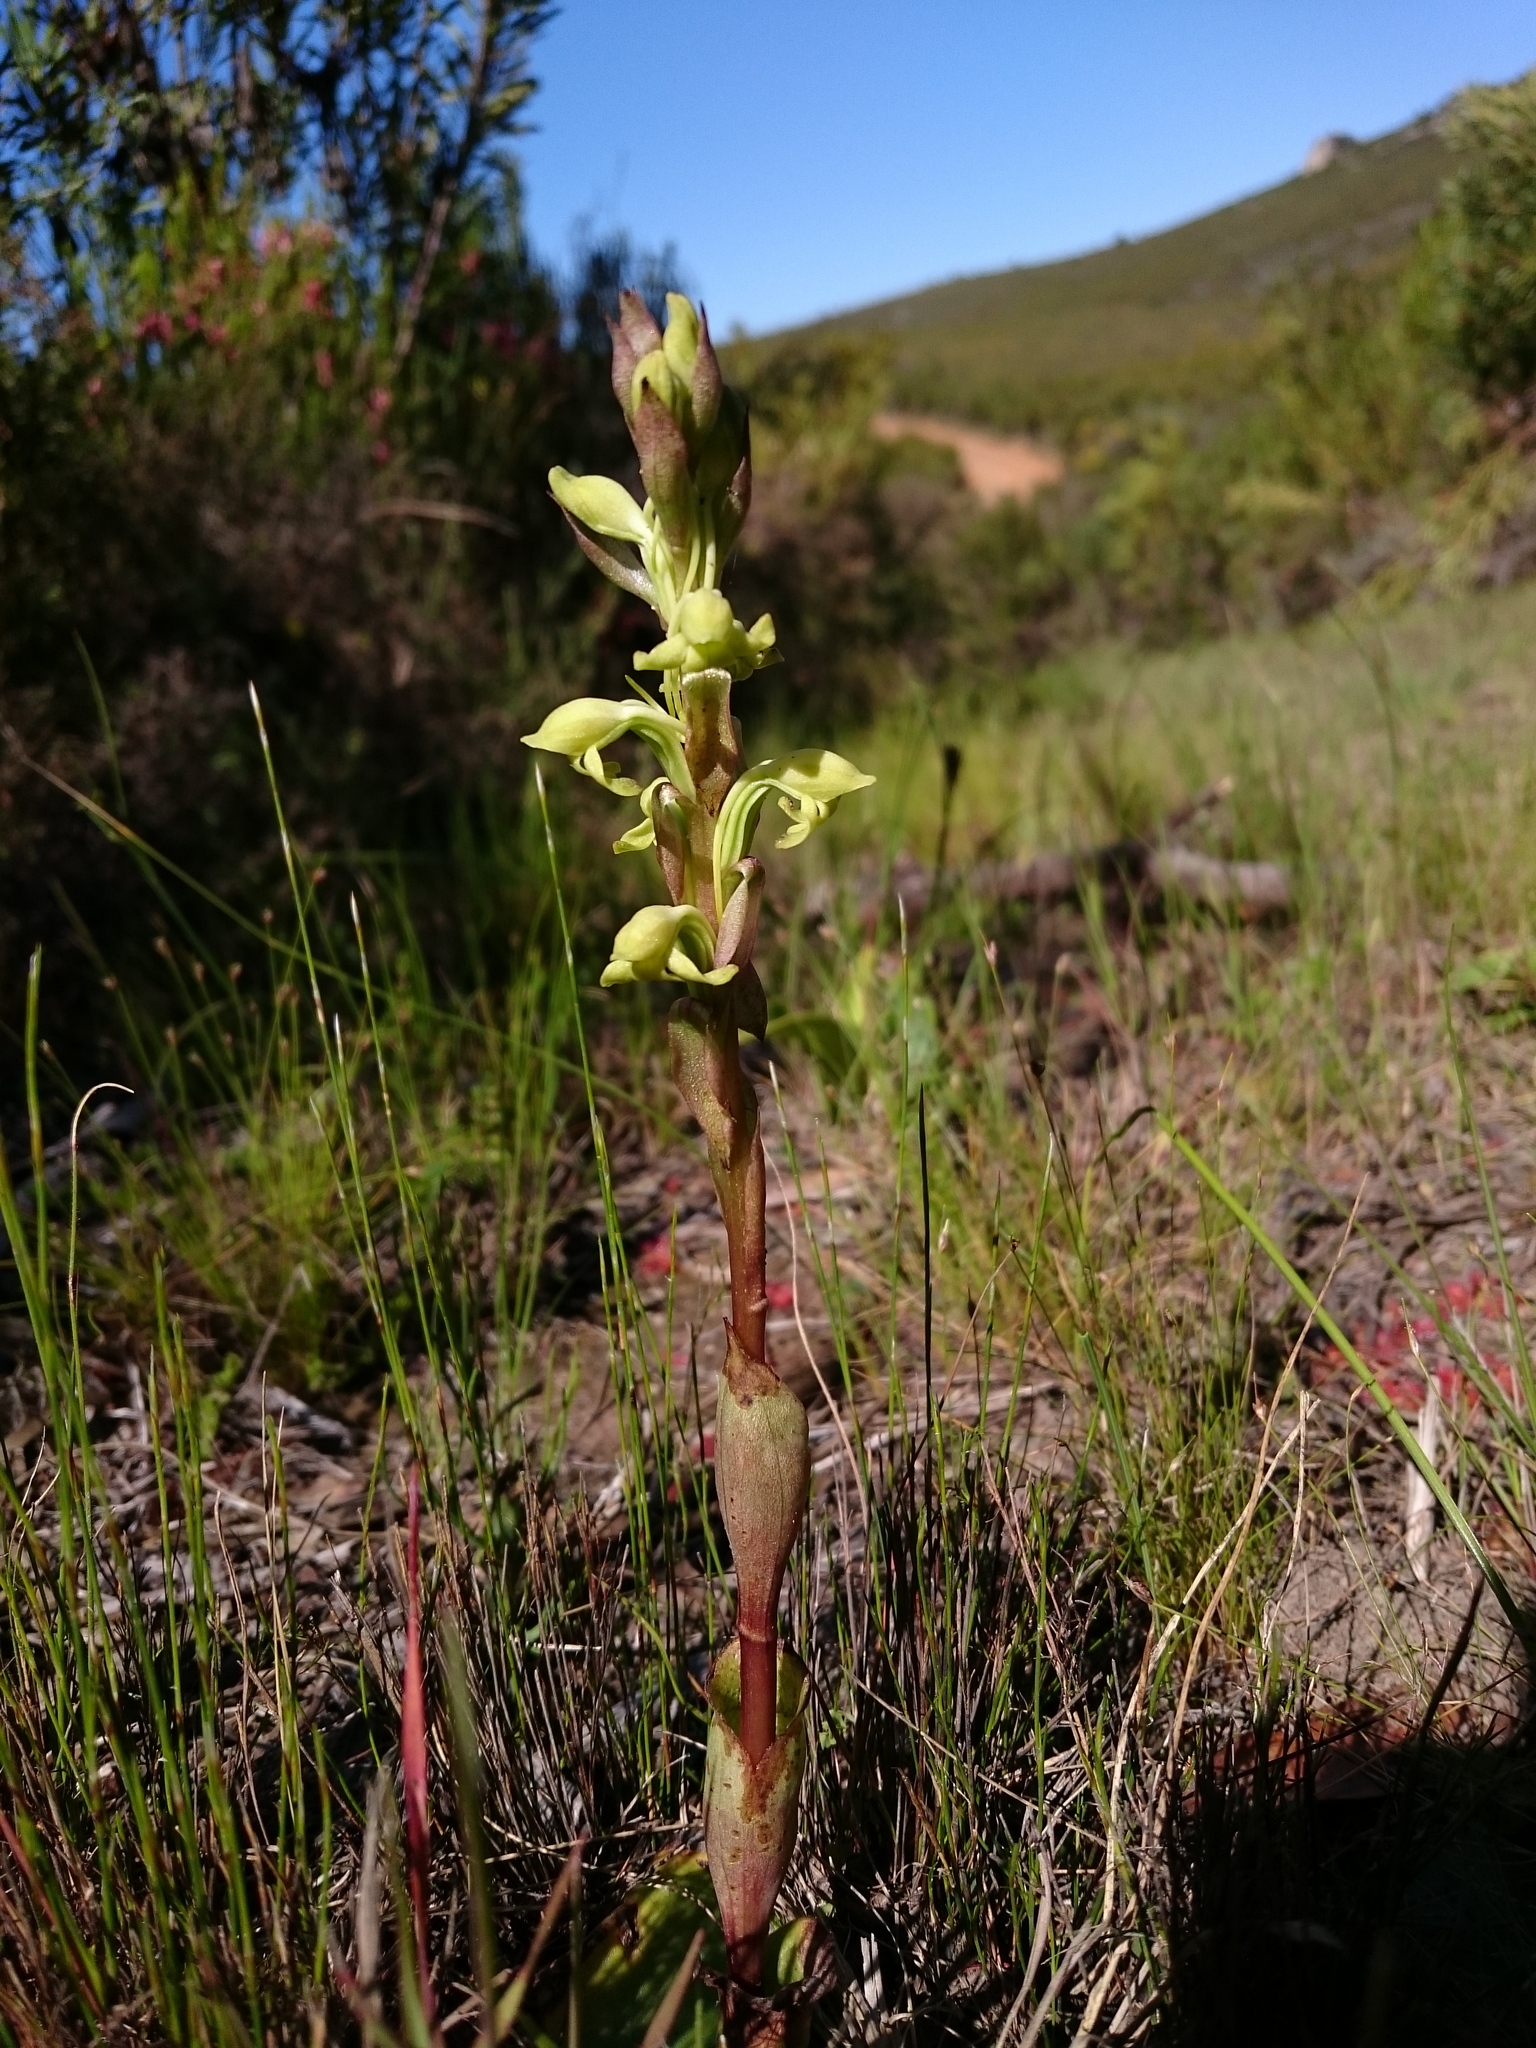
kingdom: Plantae
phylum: Tracheophyta
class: Liliopsida
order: Asparagales
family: Orchidaceae
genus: Satyrium
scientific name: Satyrium bicorne
